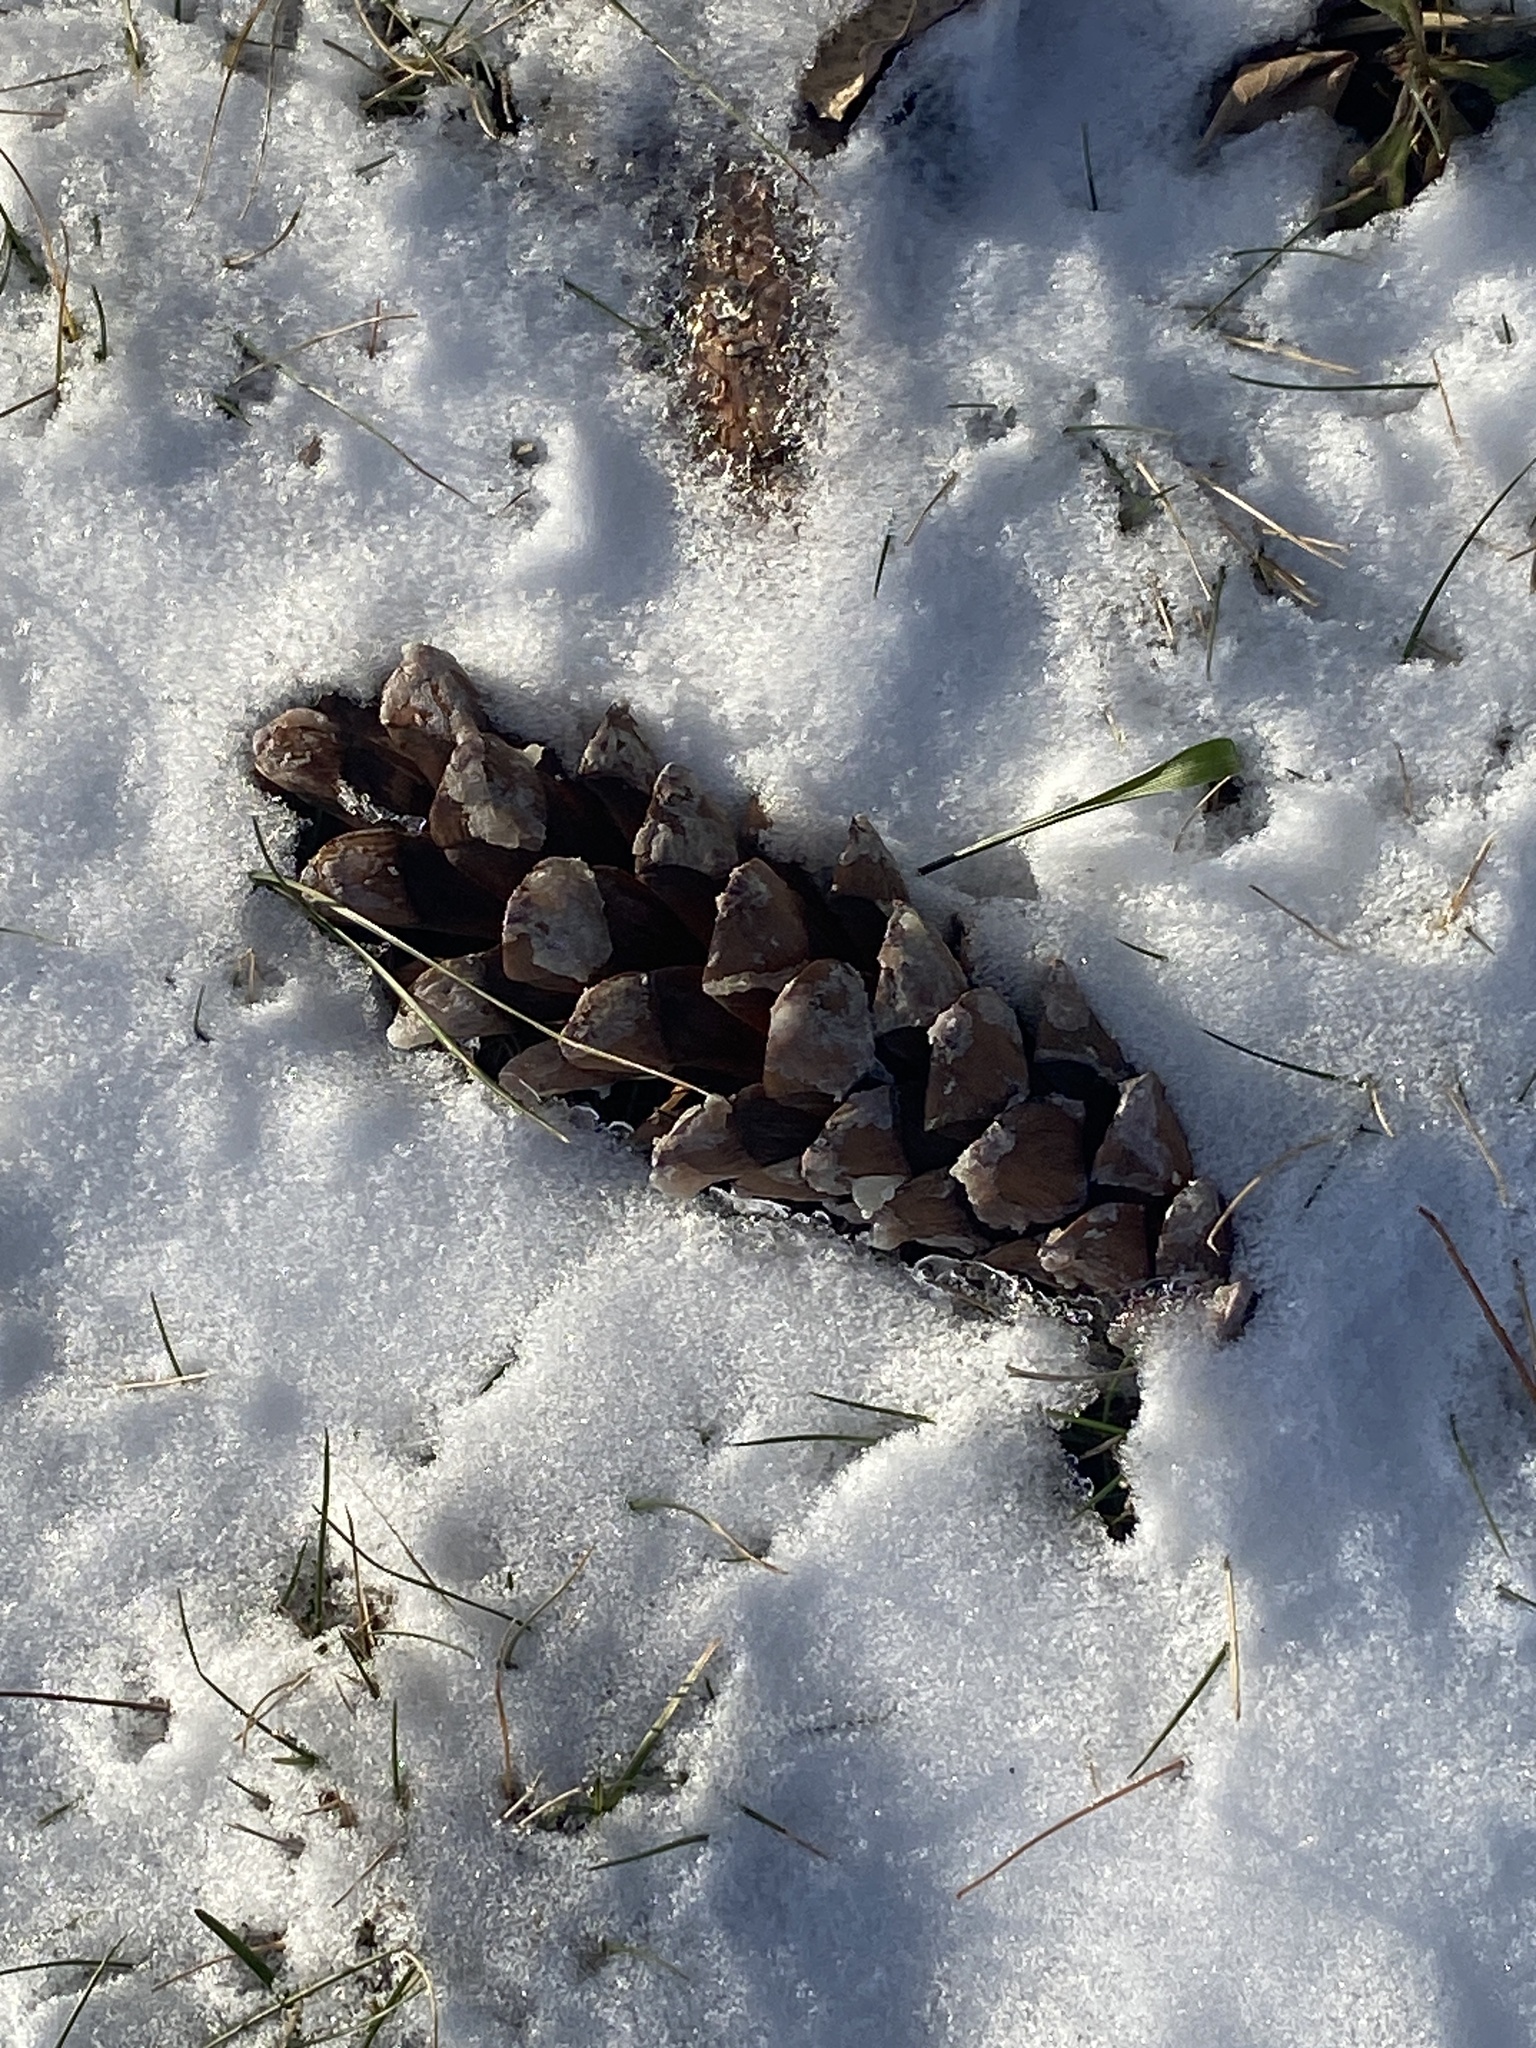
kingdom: Plantae
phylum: Tracheophyta
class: Pinopsida
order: Pinales
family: Pinaceae
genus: Pinus
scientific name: Pinus strobus
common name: Weymouth pine
